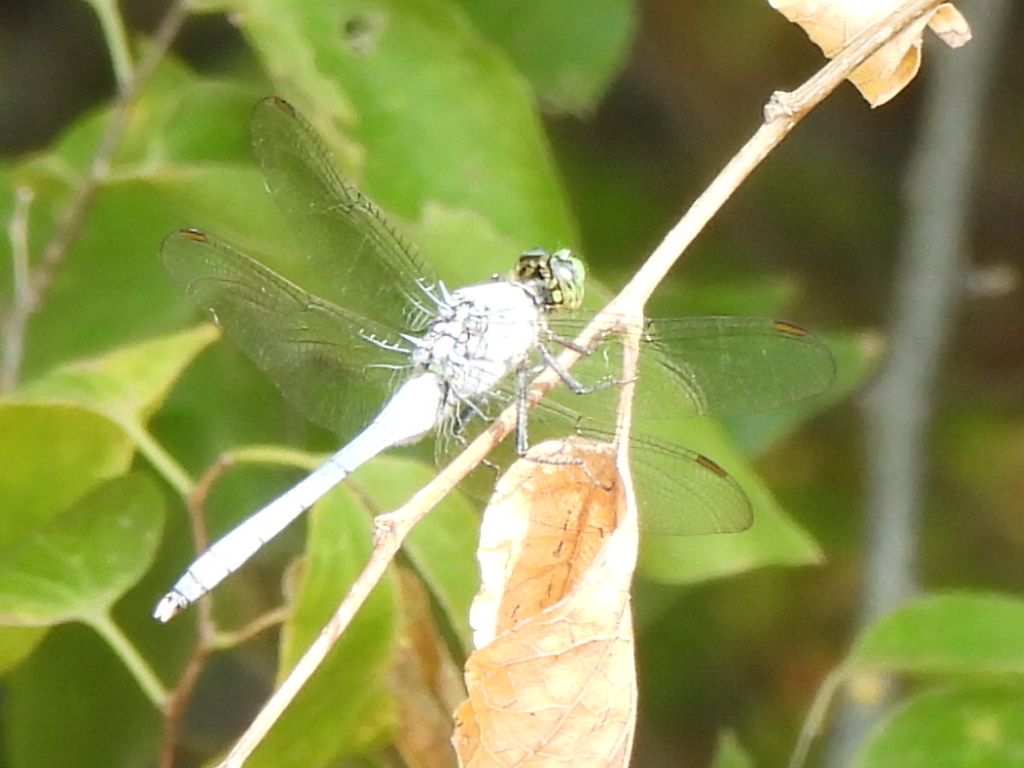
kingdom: Animalia
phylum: Arthropoda
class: Insecta
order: Odonata
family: Libellulidae
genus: Erythemis
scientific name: Erythemis simplicicollis
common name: Eastern pondhawk
